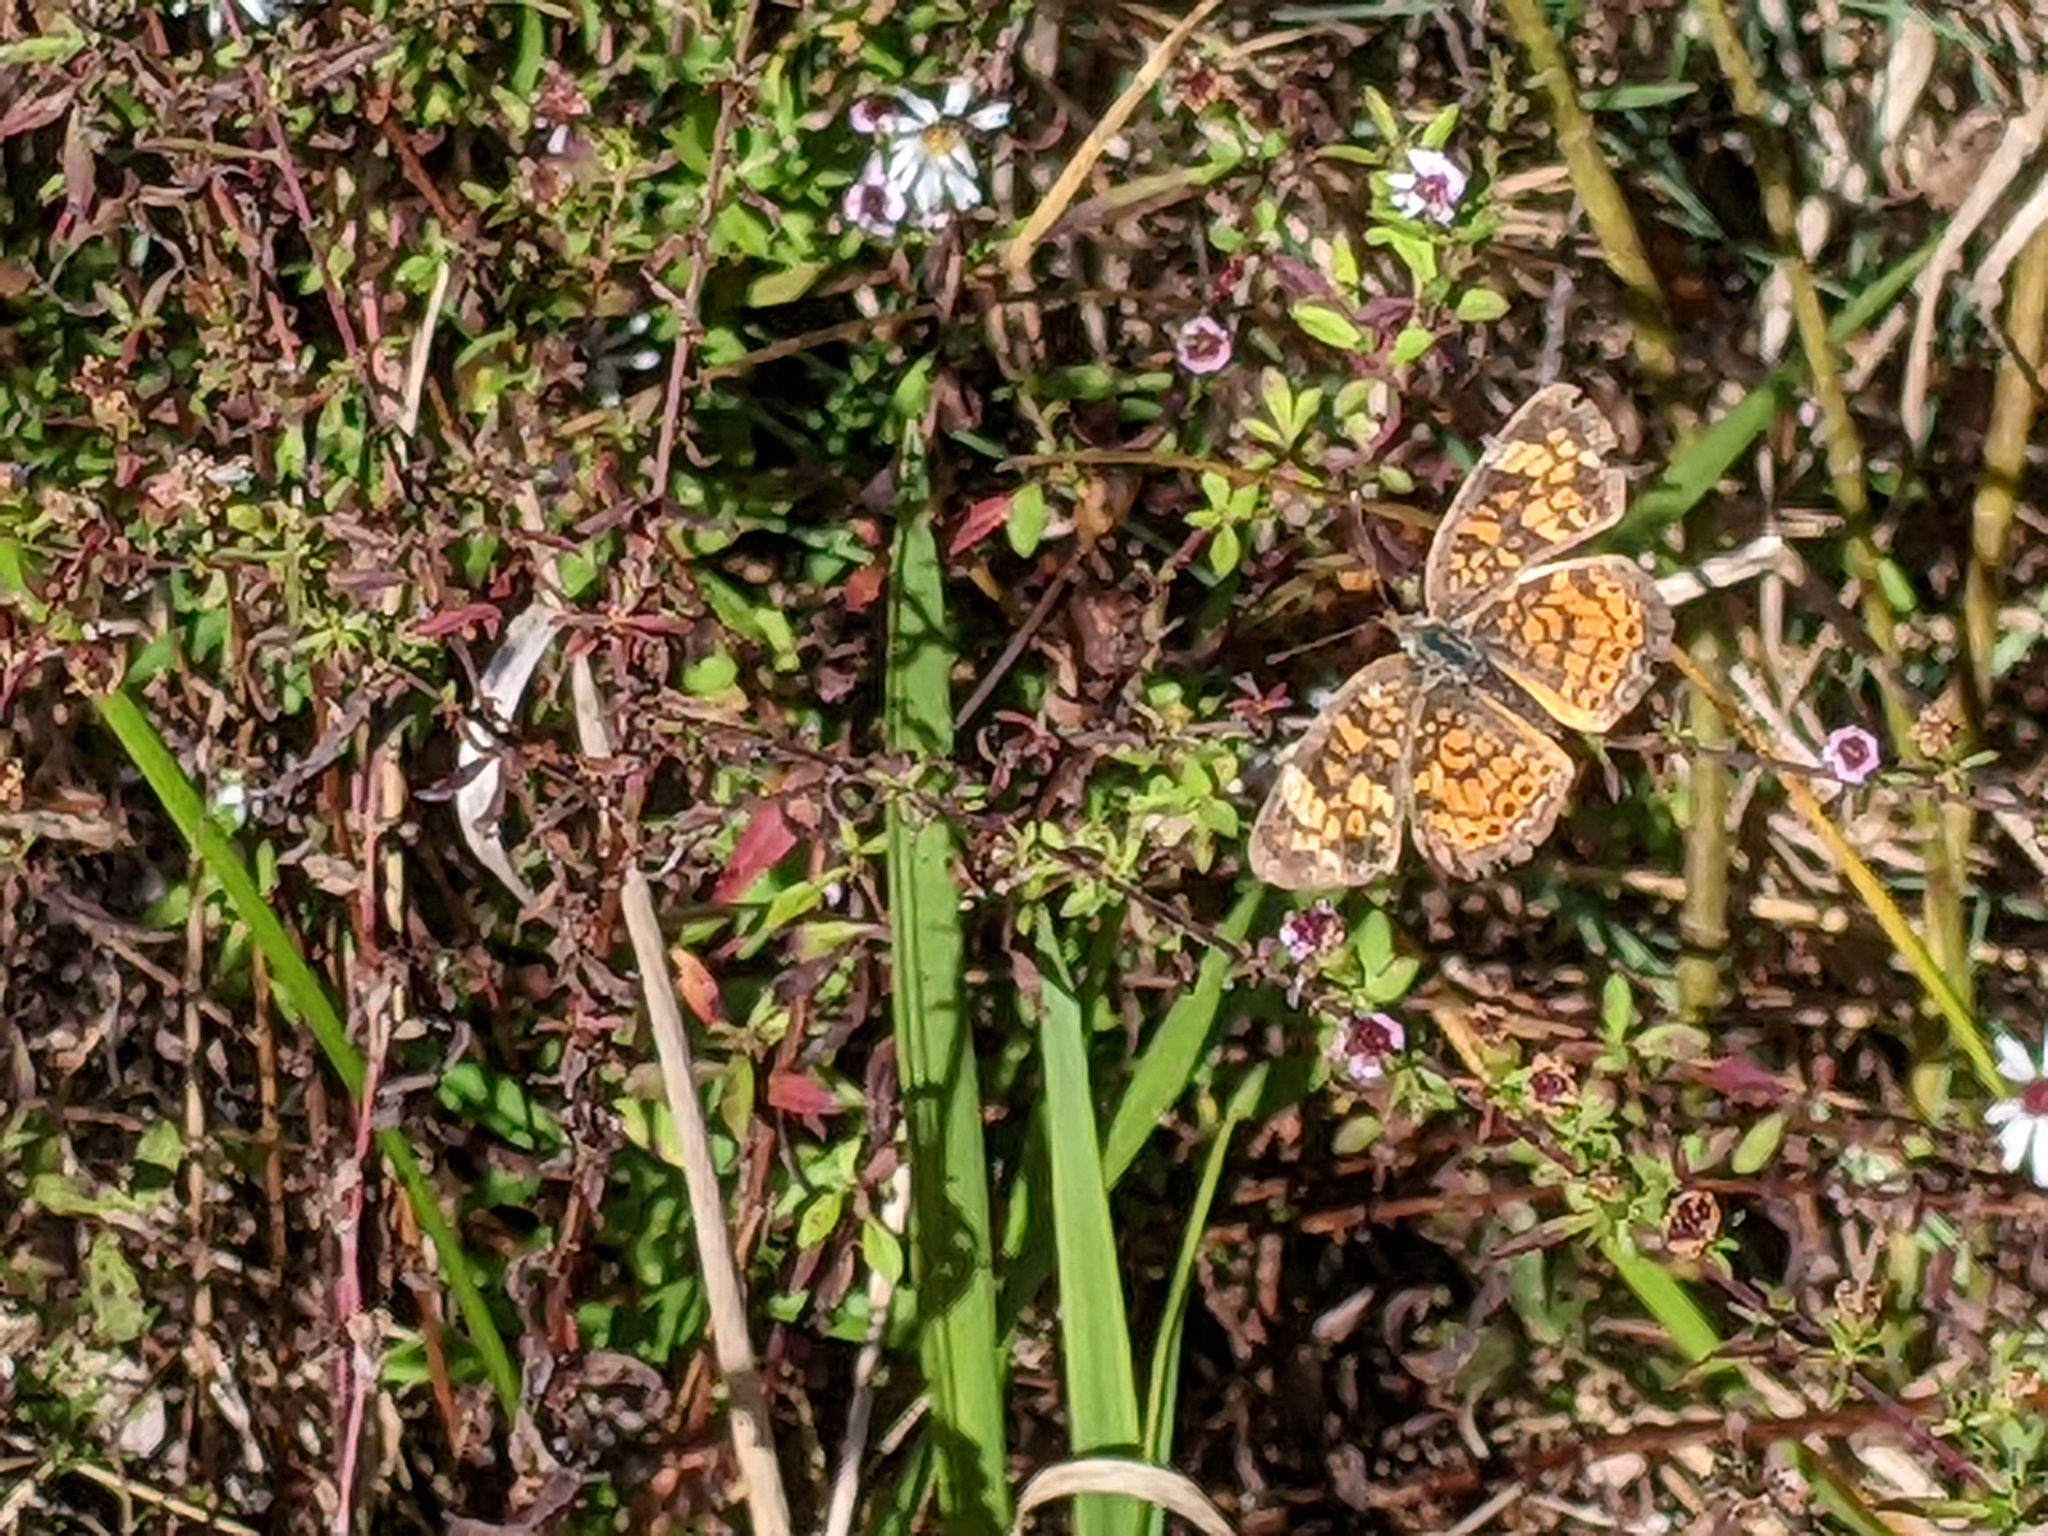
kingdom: Animalia
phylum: Arthropoda
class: Insecta
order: Lepidoptera
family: Nymphalidae
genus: Phyciodes
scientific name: Phyciodes tharos
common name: Pearl crescent
